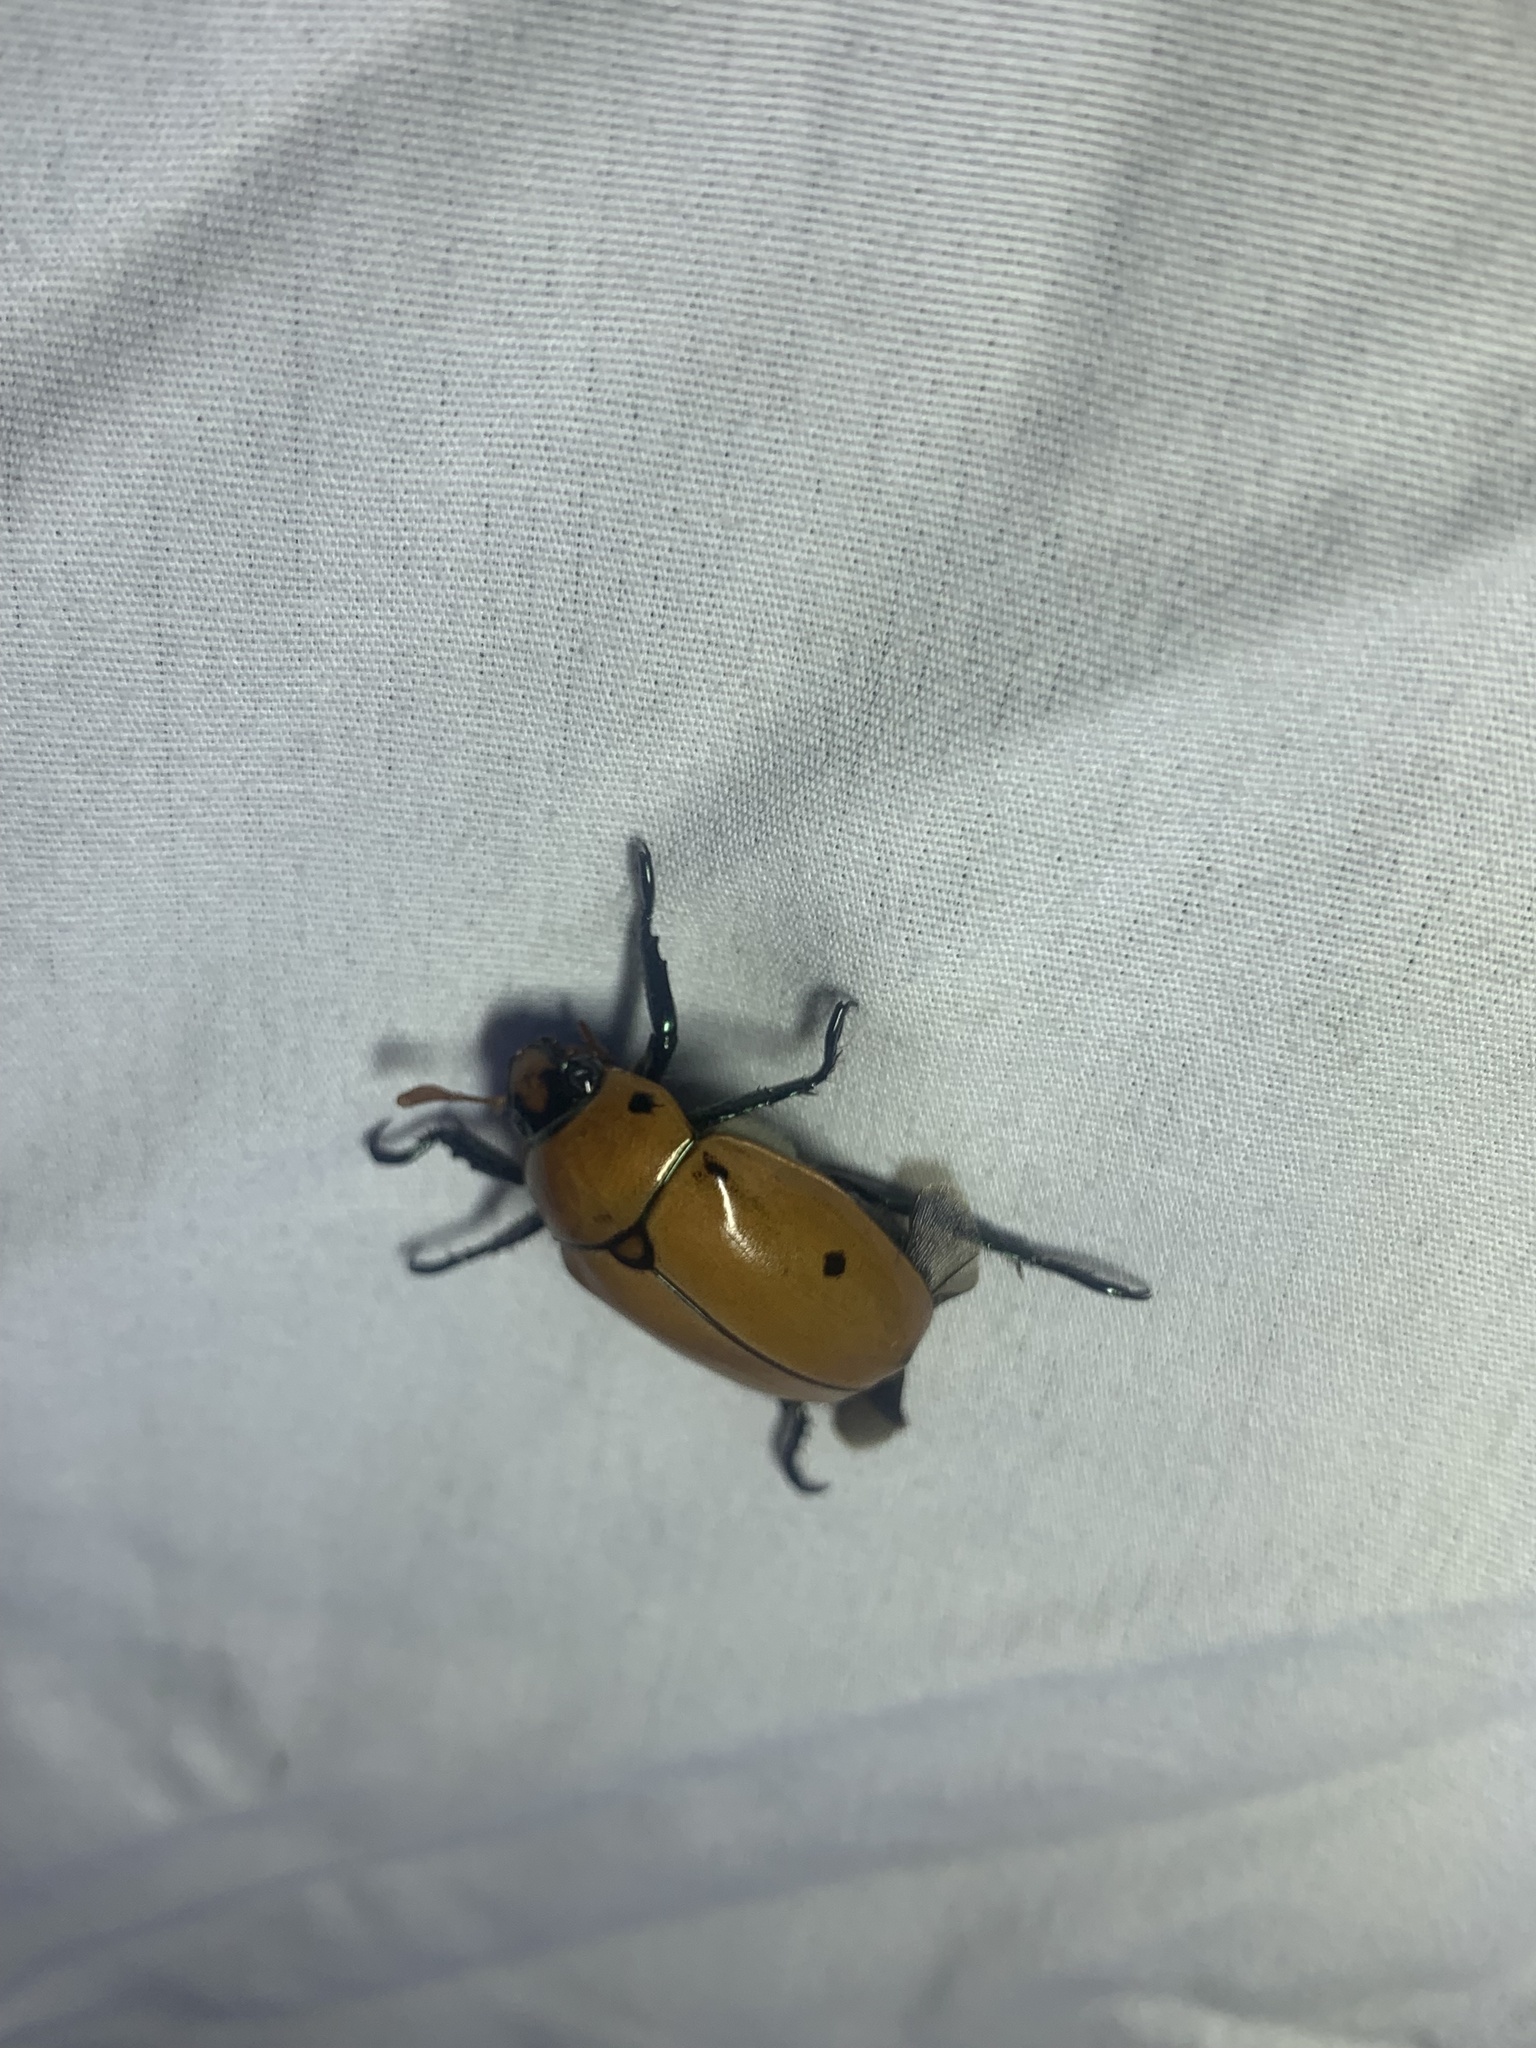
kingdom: Animalia
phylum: Arthropoda
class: Insecta
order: Coleoptera
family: Scarabaeidae
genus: Pelidnota
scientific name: Pelidnota punctata
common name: Grapevine beetle
